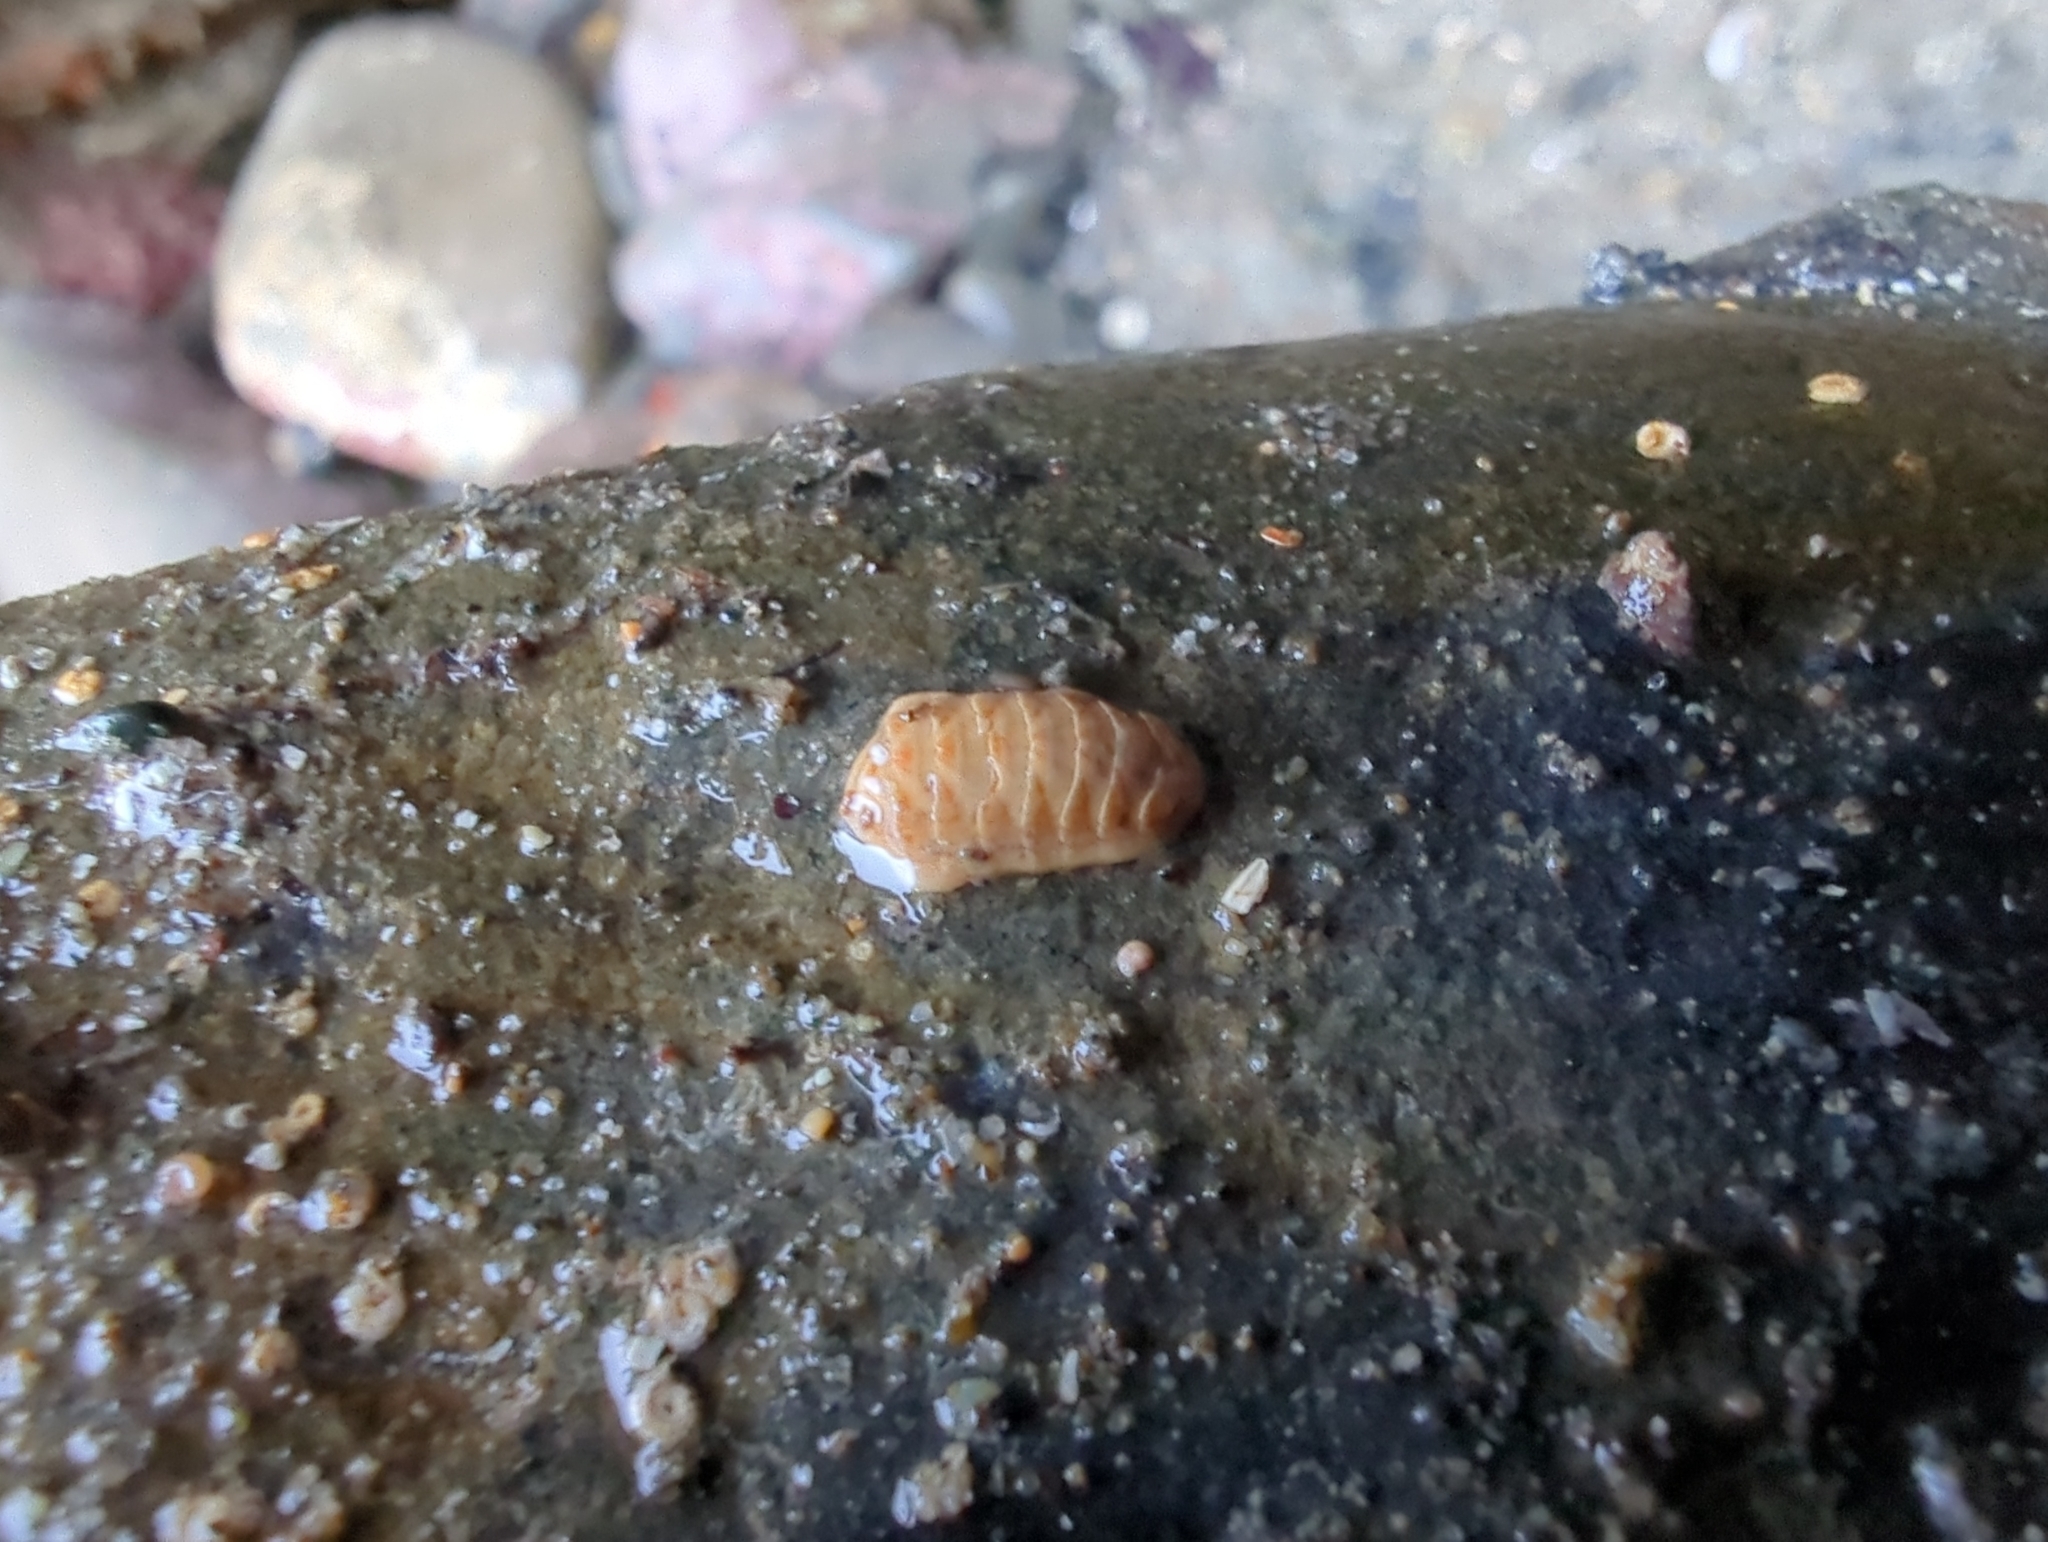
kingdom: Animalia
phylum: Mollusca
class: Polyplacophora
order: Lepidopleurida
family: Leptochitonidae
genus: Leptochiton
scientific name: Leptochiton rugatus
